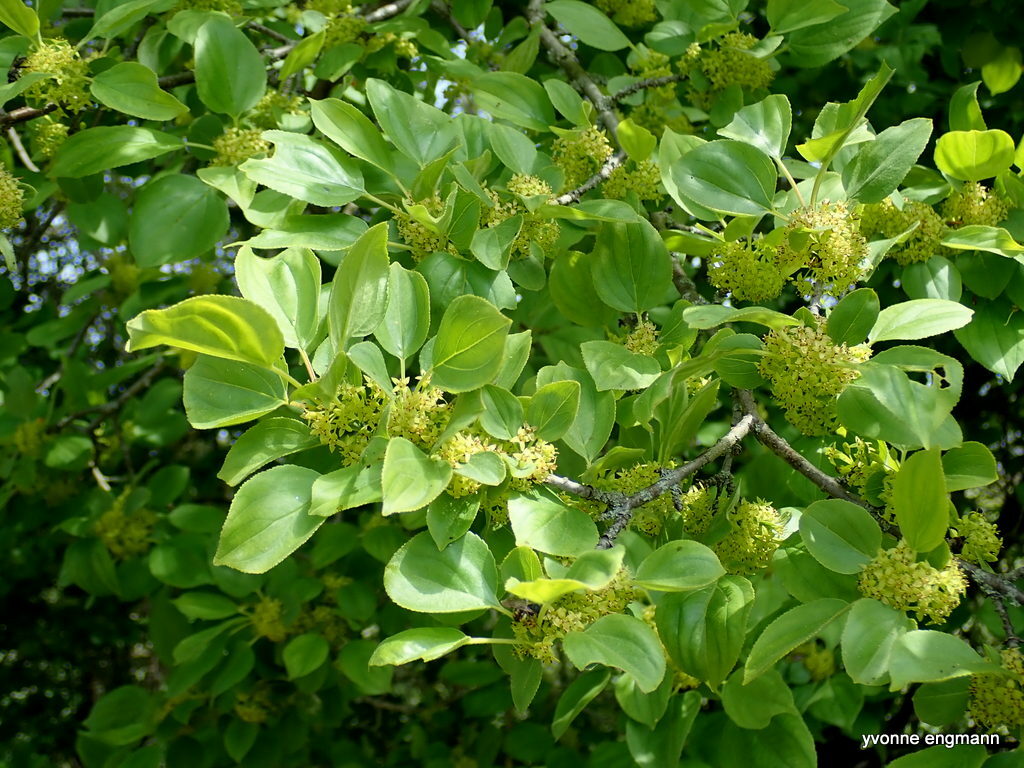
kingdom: Plantae
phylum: Tracheophyta
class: Magnoliopsida
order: Rosales
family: Rhamnaceae
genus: Rhamnus
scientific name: Rhamnus cathartica
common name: Common buckthorn
